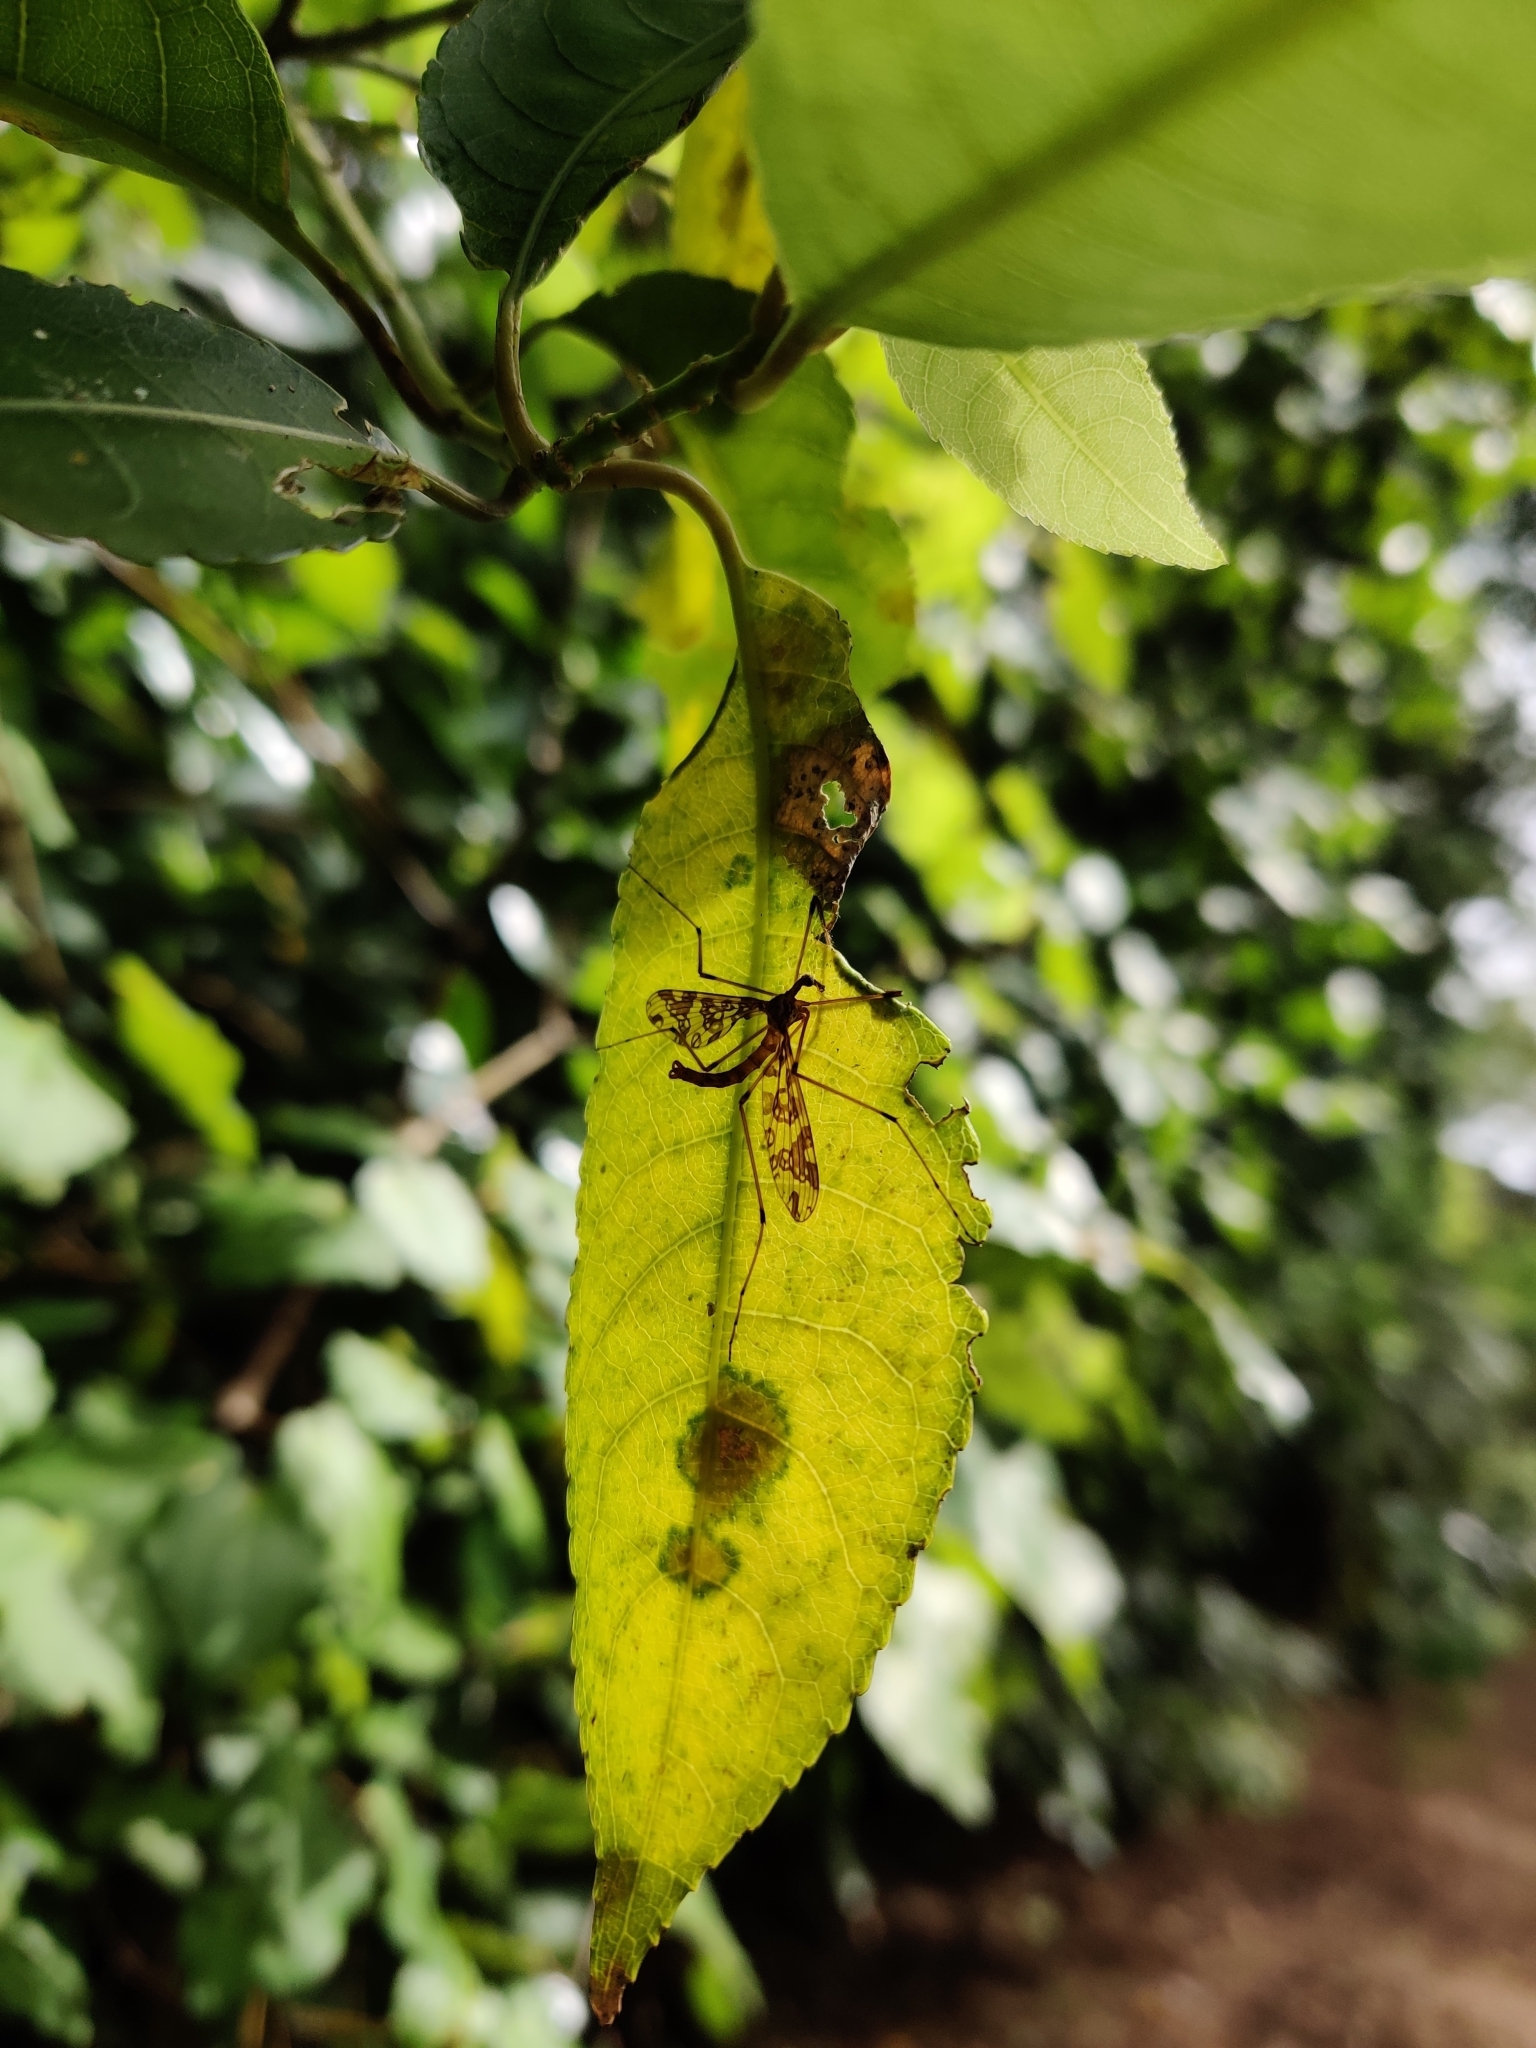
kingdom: Animalia
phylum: Arthropoda
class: Insecta
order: Diptera
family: Tanyderidae
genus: Tanyderus
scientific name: Tanyderus annuliferus
